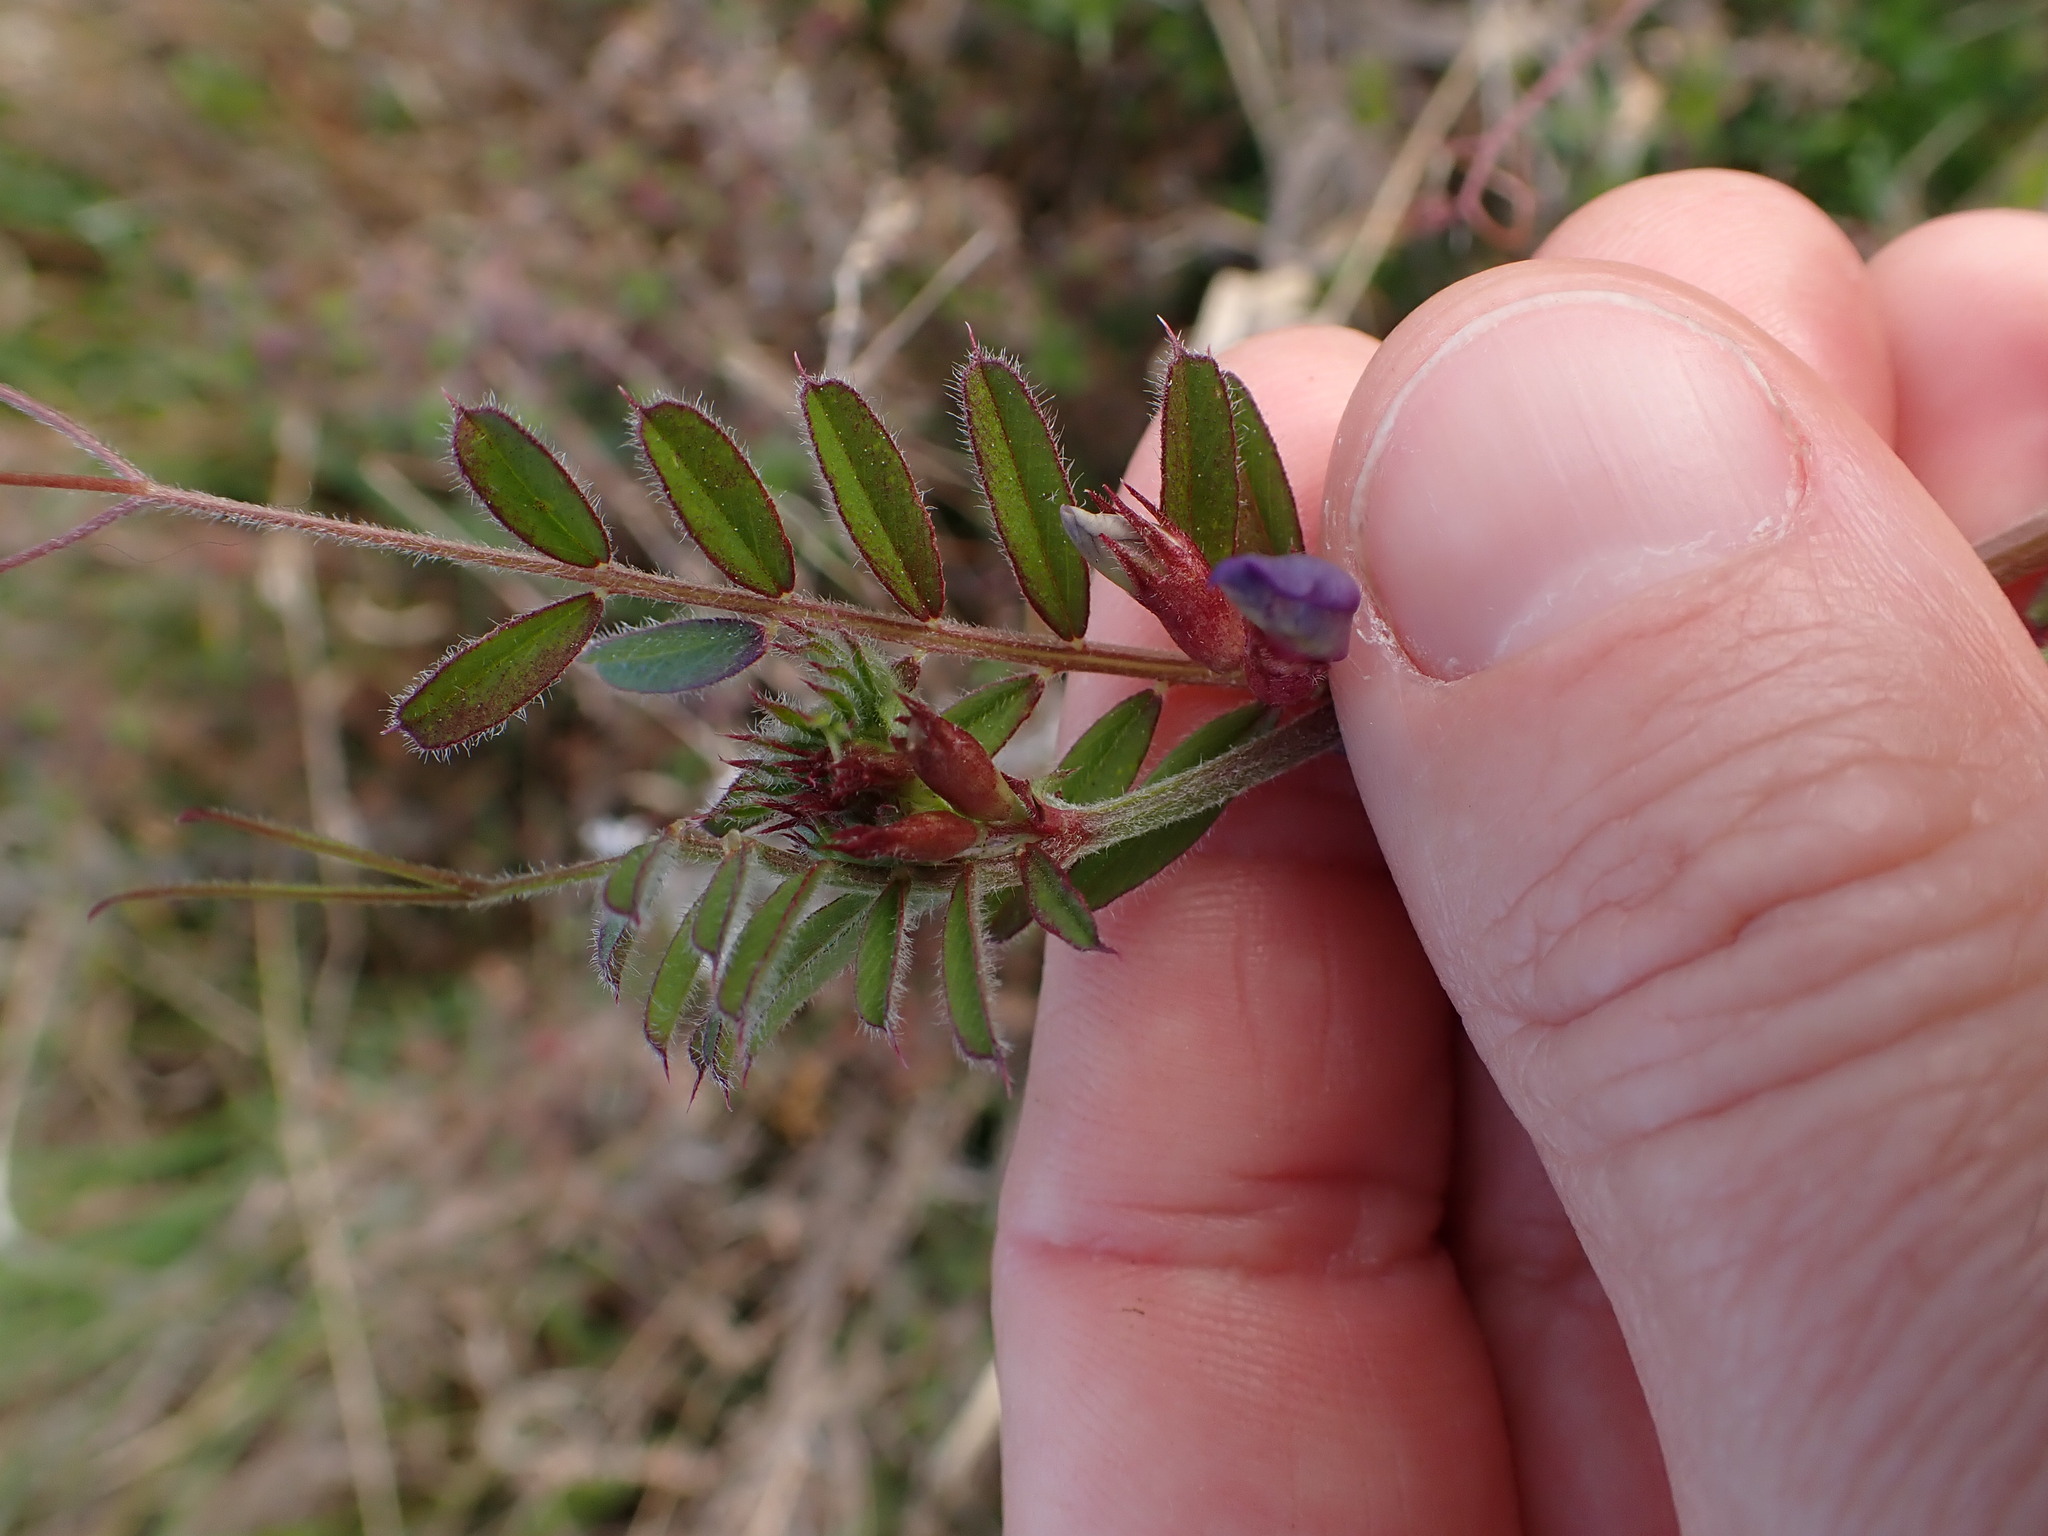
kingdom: Plantae
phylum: Tracheophyta
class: Magnoliopsida
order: Fabales
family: Fabaceae
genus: Vicia
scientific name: Vicia sativa
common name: Garden vetch
